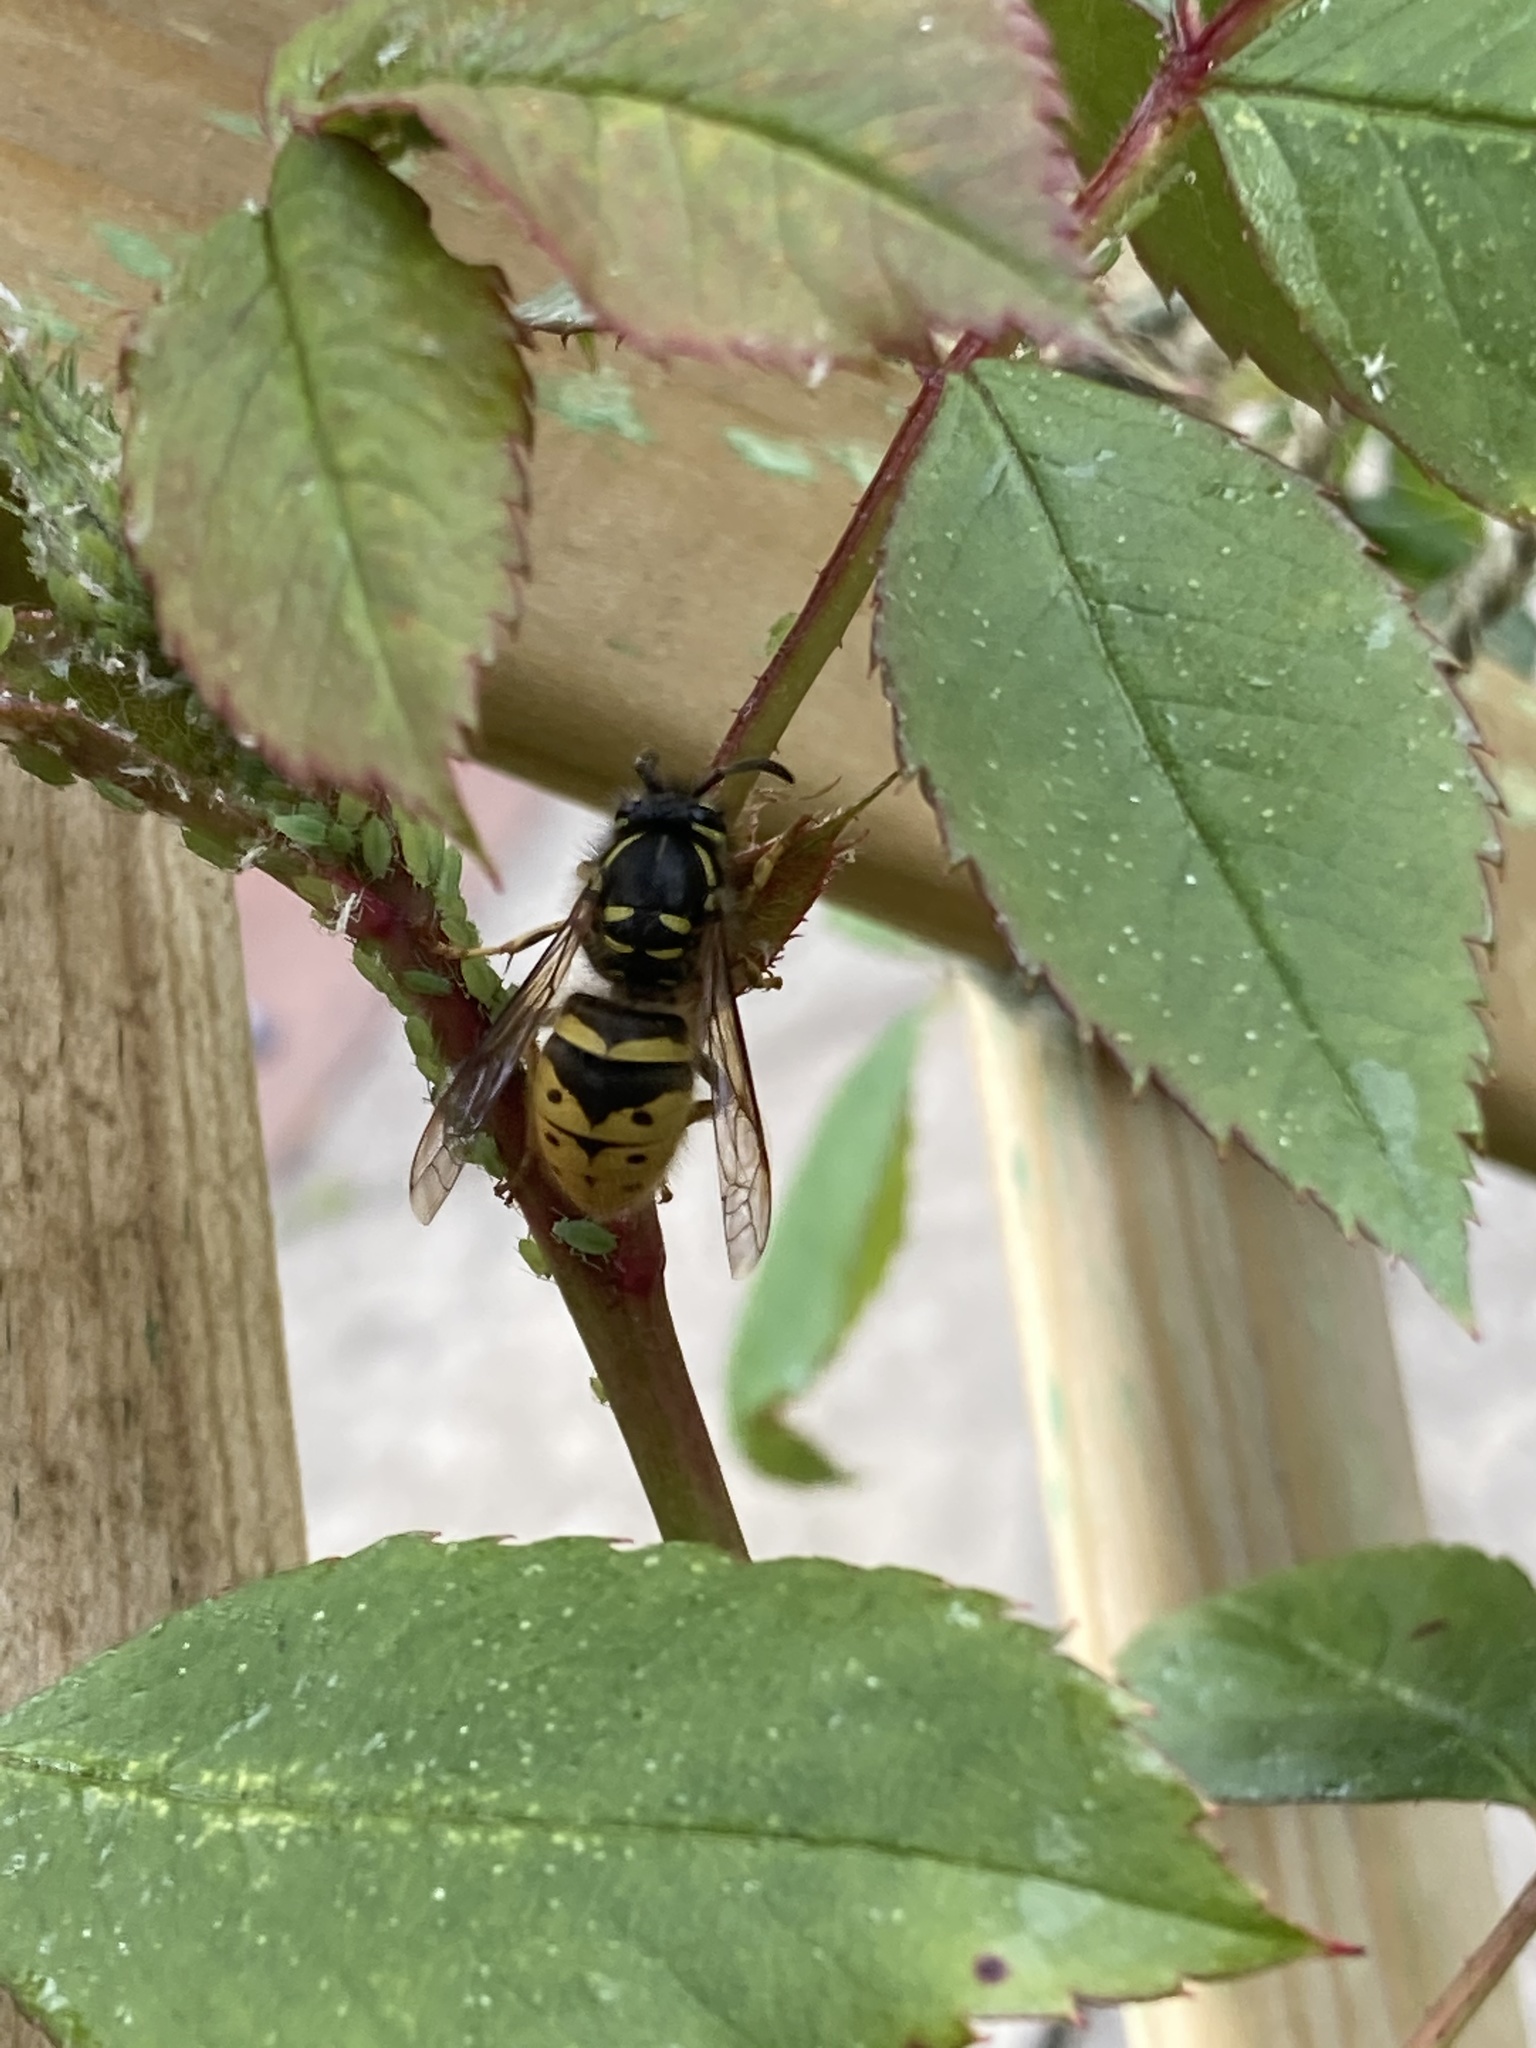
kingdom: Animalia
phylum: Arthropoda
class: Insecta
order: Hymenoptera
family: Vespidae
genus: Vespula
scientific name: Vespula vulgaris
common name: Common wasp
